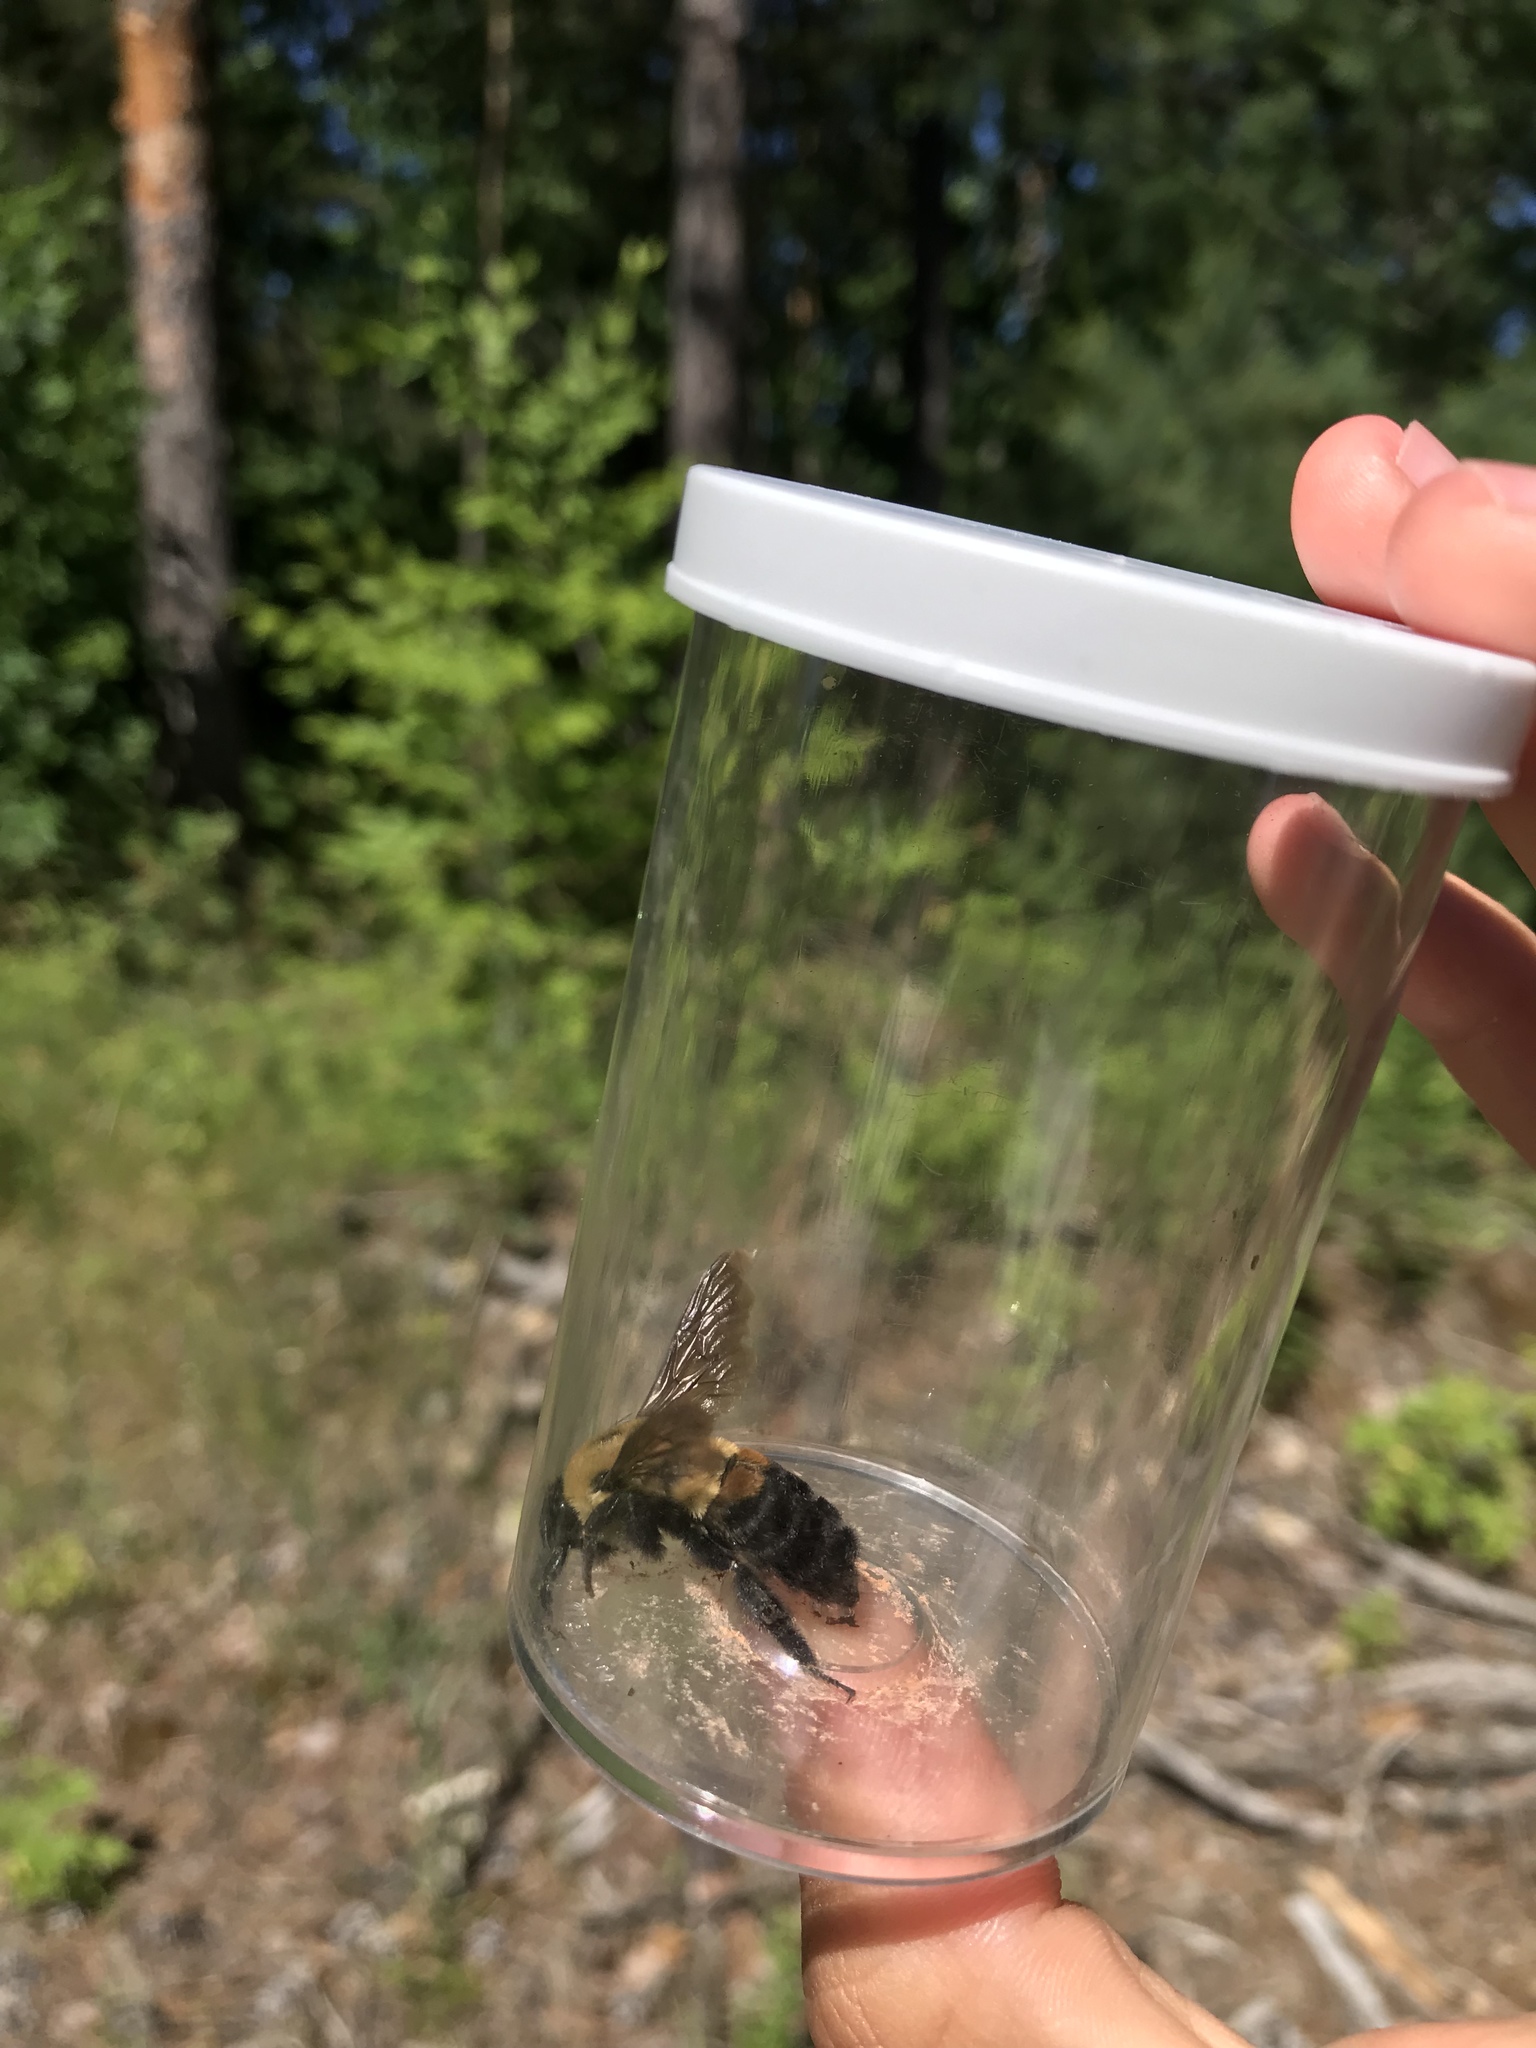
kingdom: Animalia
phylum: Arthropoda
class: Insecta
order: Hymenoptera
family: Apidae
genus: Bombus
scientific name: Bombus griseocollis
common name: Brown-belted bumble bee
